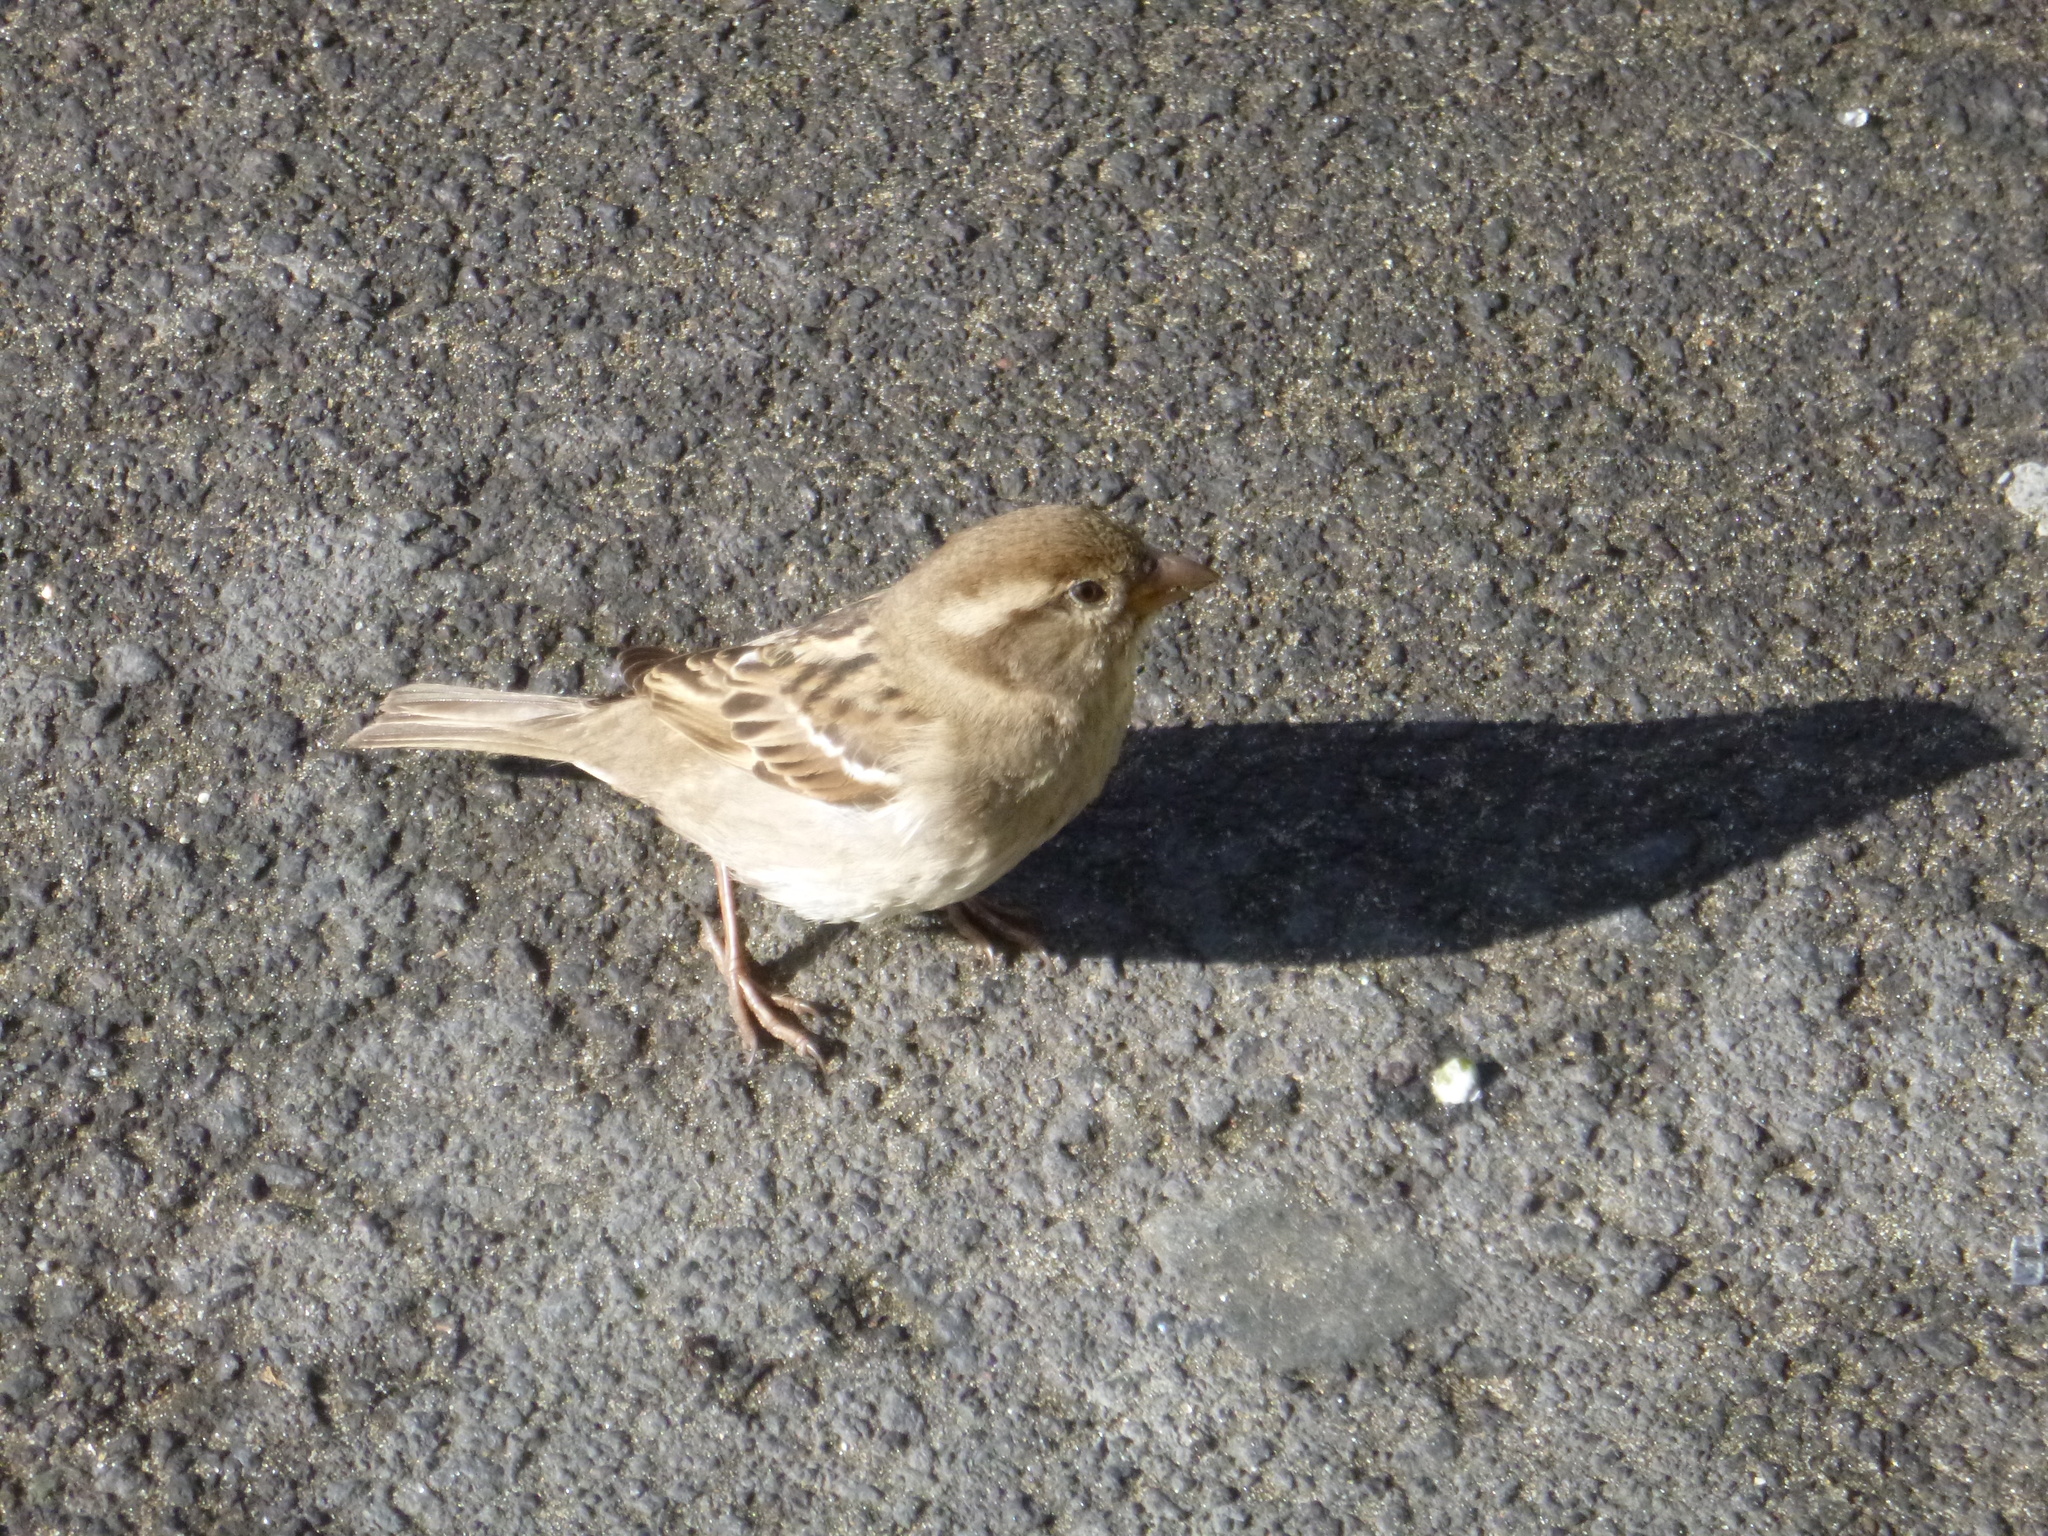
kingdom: Animalia
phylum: Chordata
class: Aves
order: Passeriformes
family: Passeridae
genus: Passer
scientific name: Passer domesticus
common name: House sparrow
